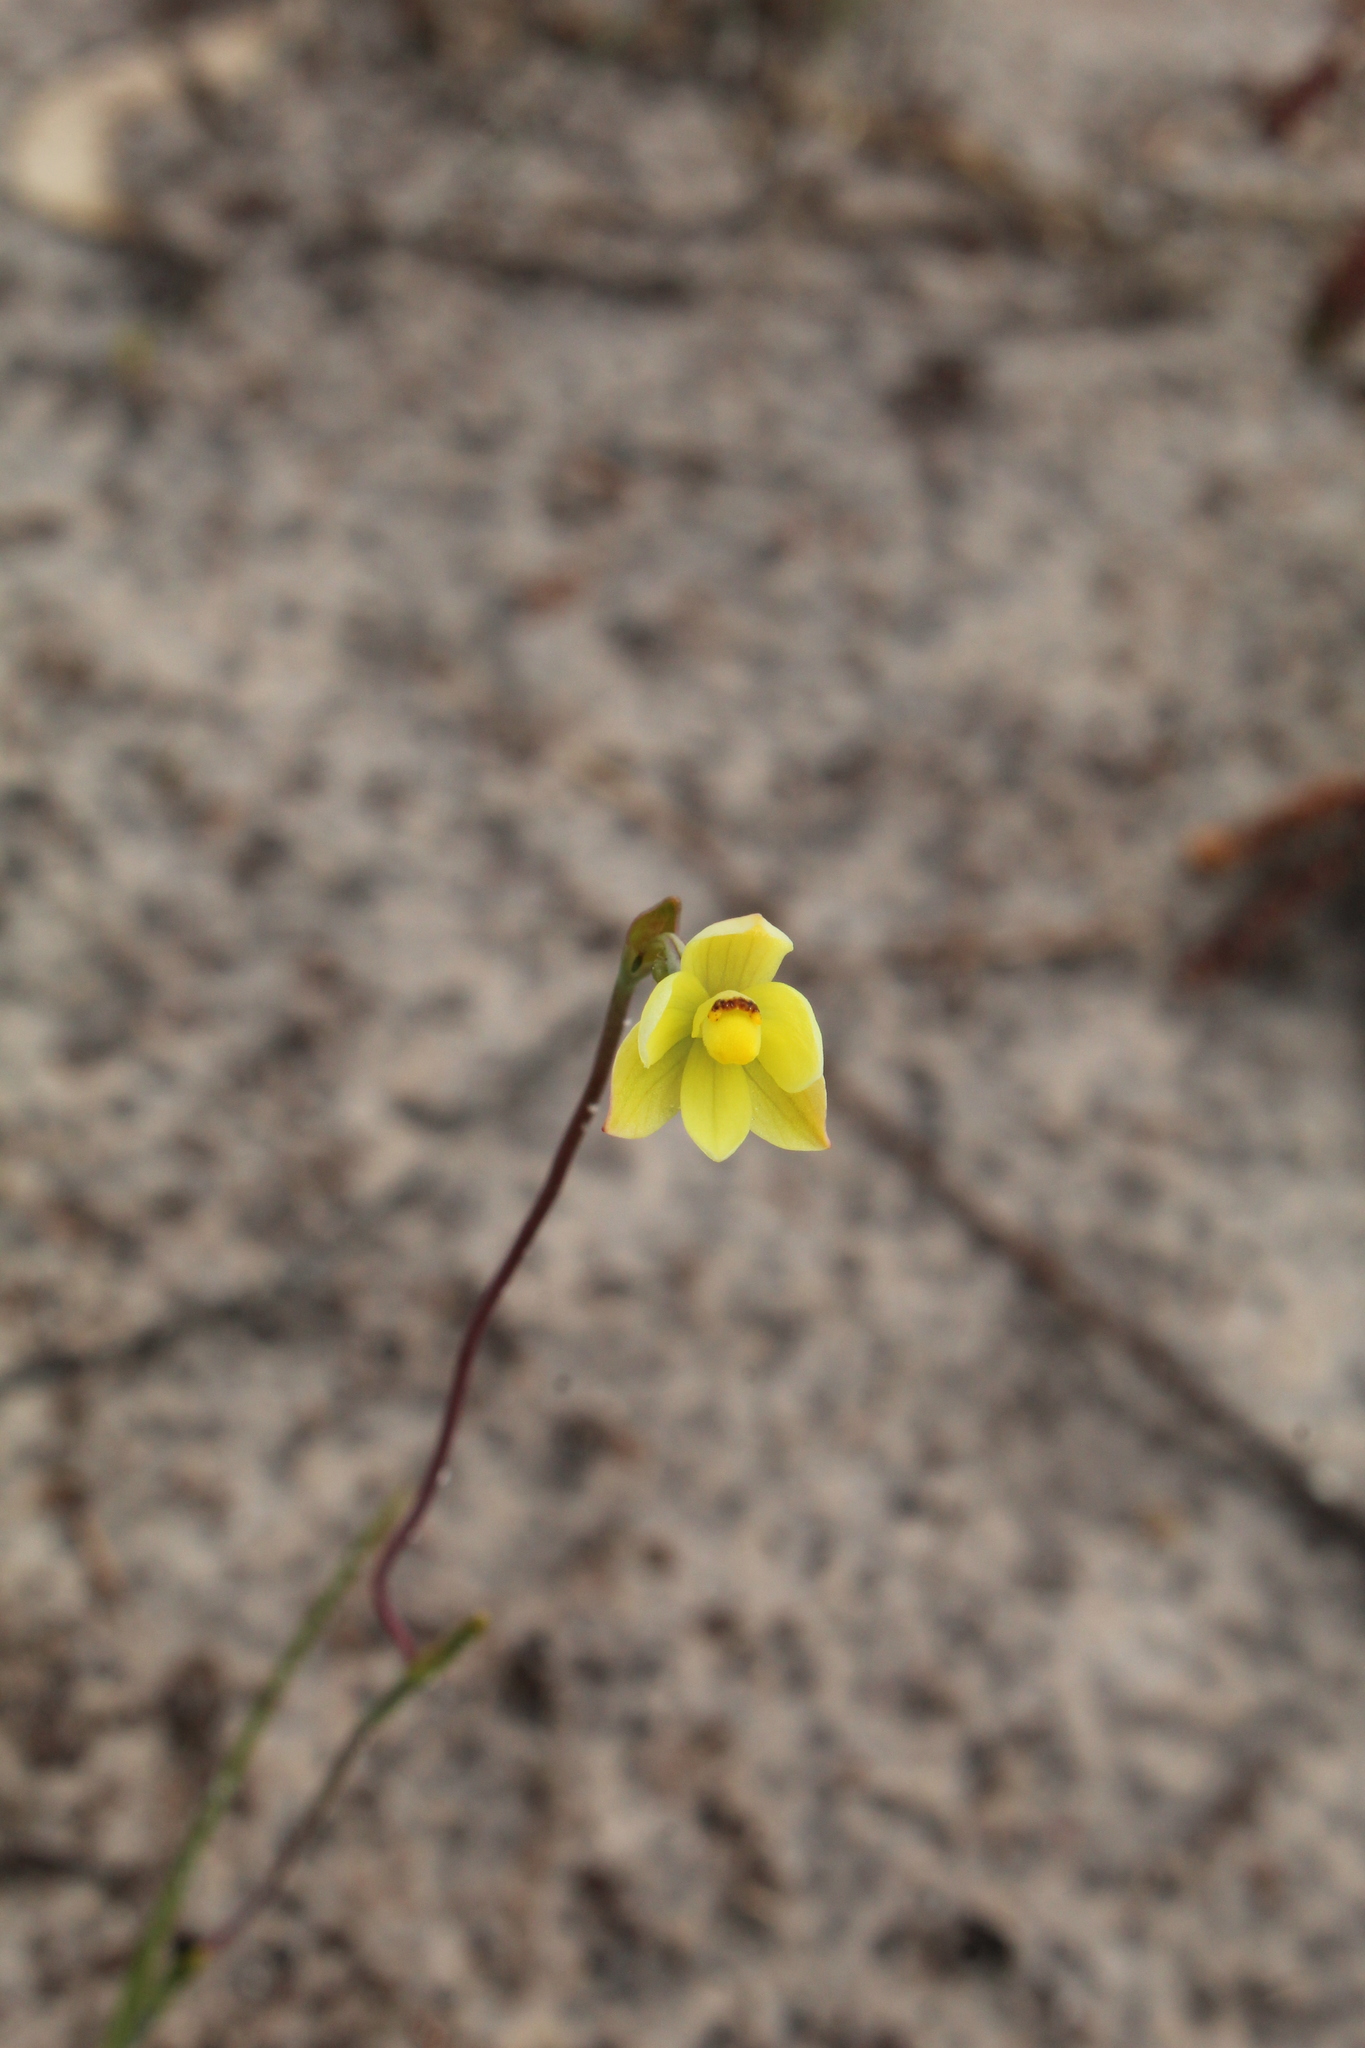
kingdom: Plantae
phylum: Tracheophyta
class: Liliopsida
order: Asparagales
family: Orchidaceae
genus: Thelymitra
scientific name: Thelymitra flexuosa
